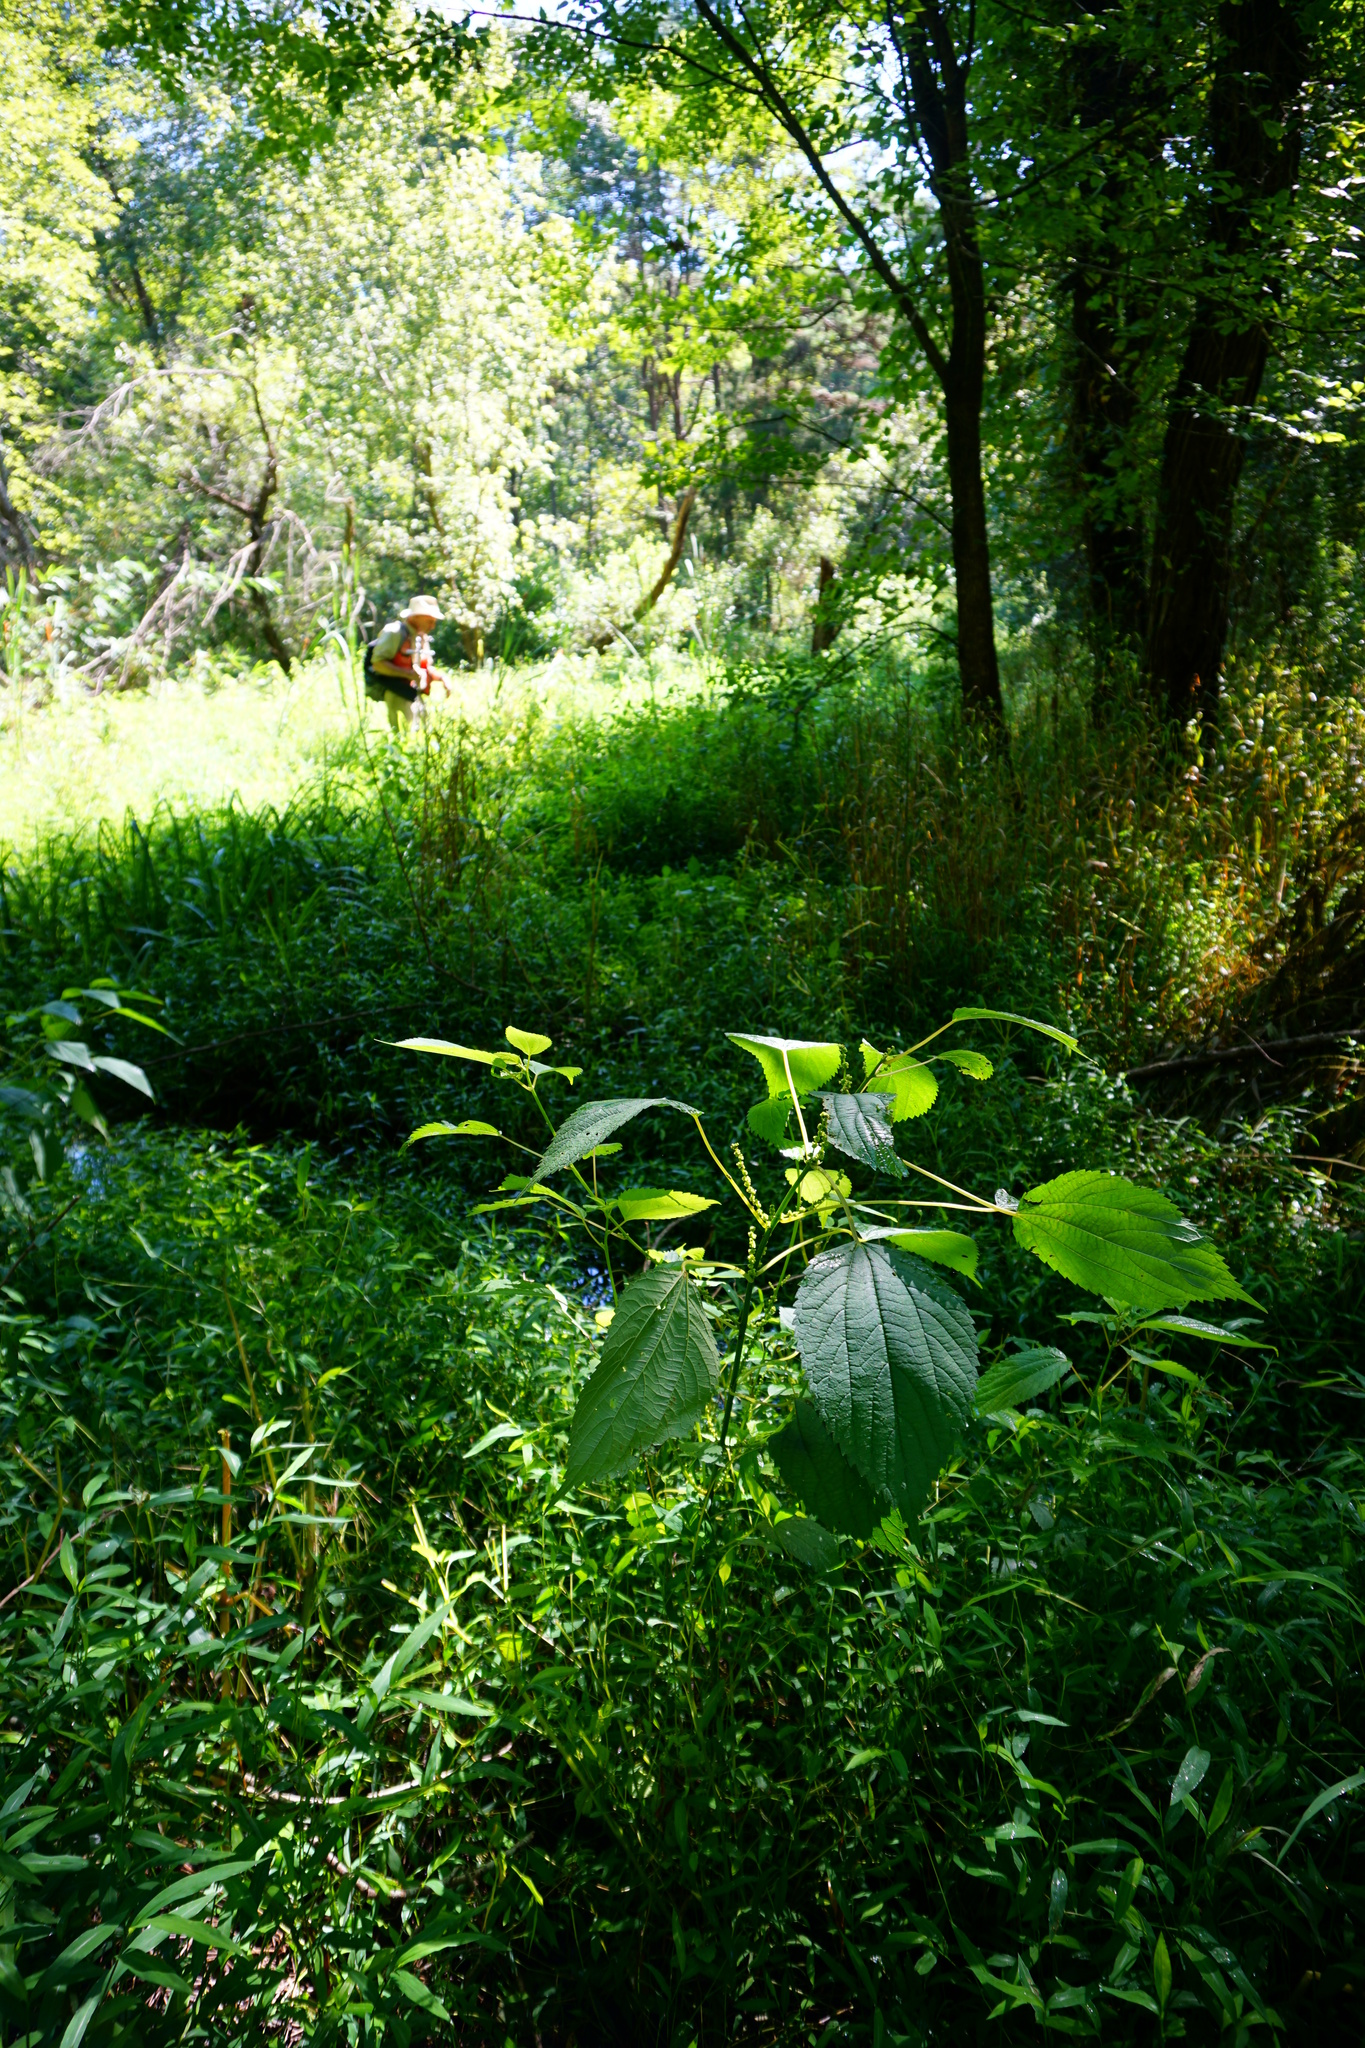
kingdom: Plantae
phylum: Tracheophyta
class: Magnoliopsida
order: Rosales
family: Urticaceae
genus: Boehmeria
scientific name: Boehmeria cylindrica
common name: Bog-hemp
